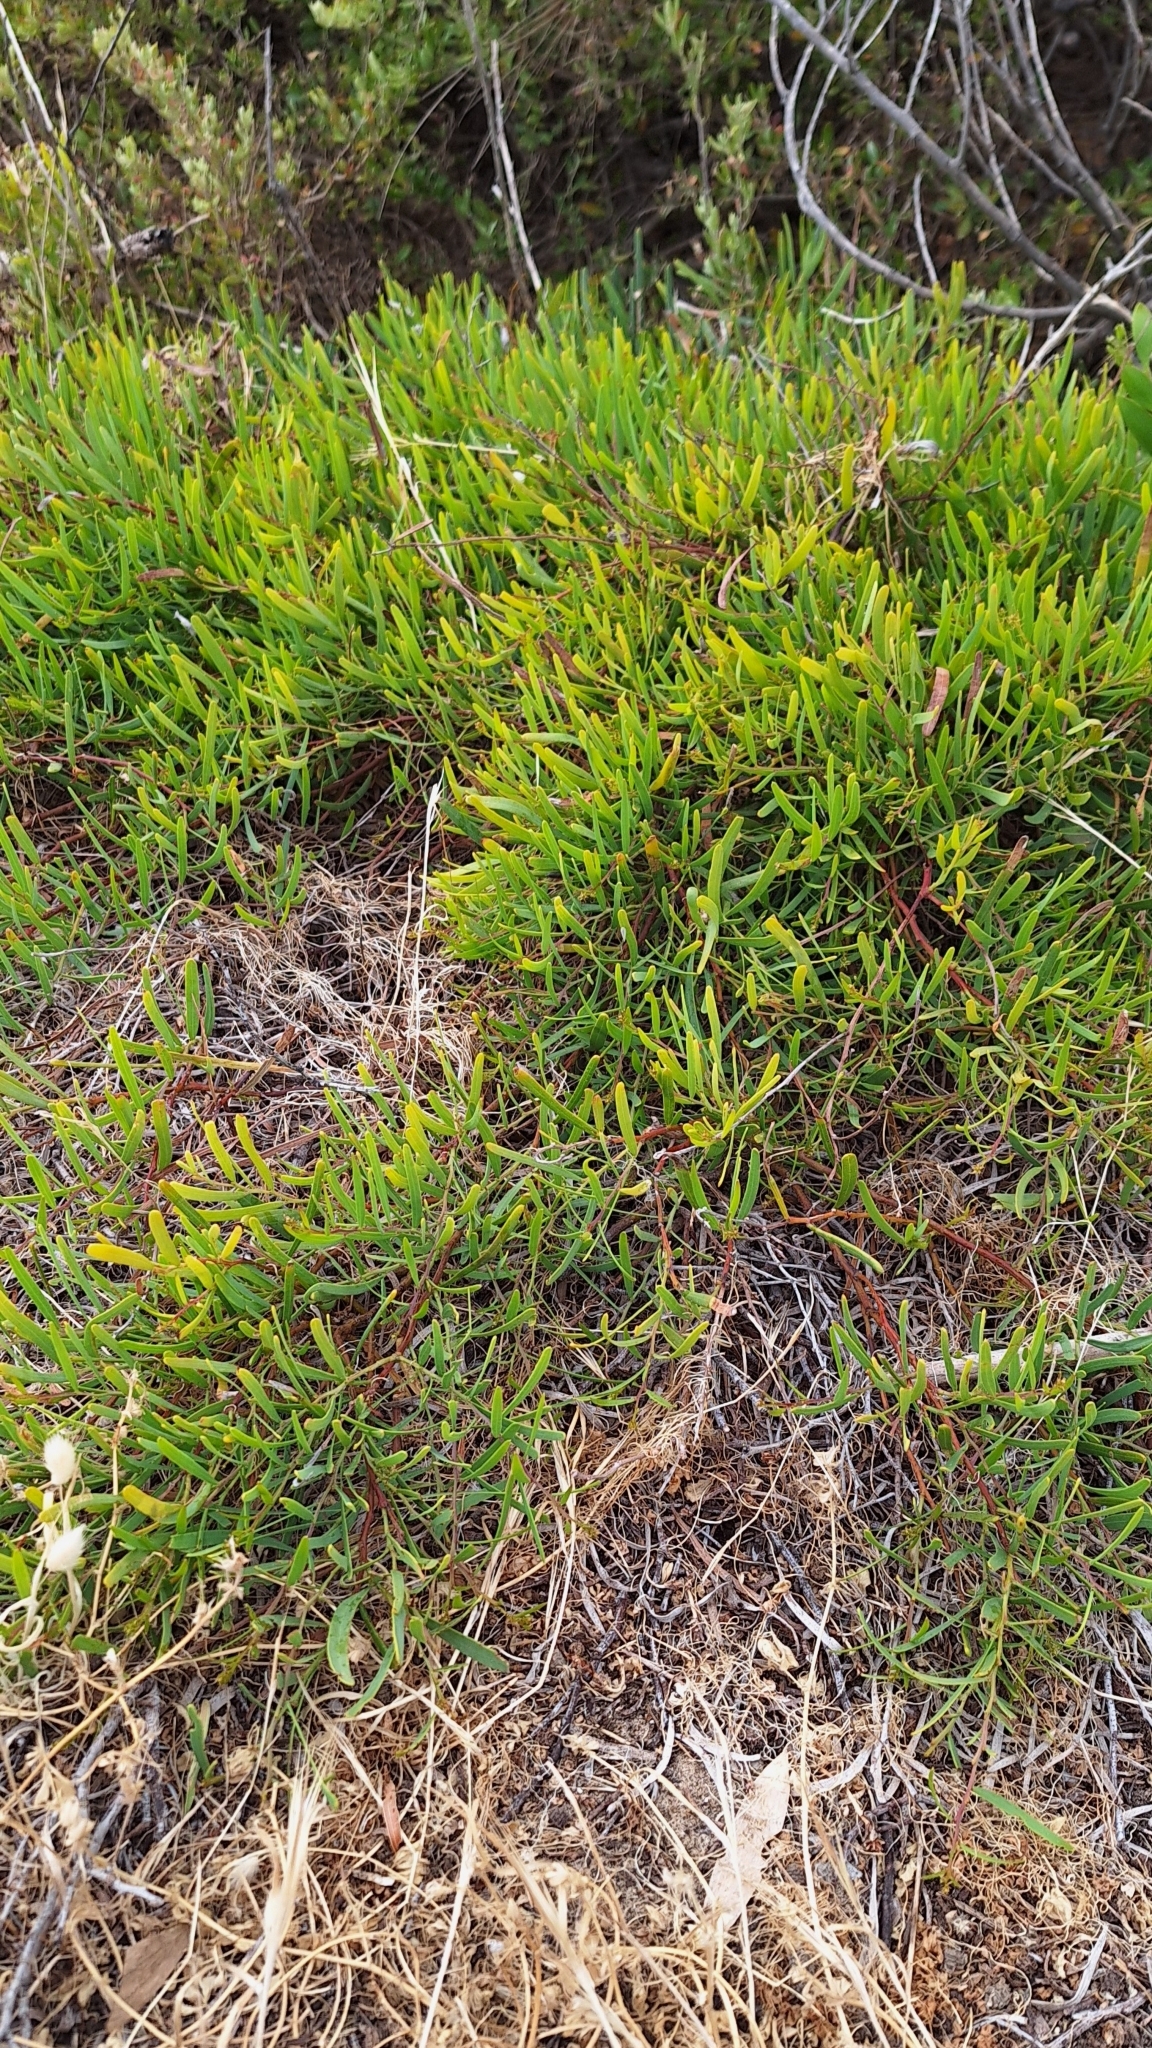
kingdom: Plantae
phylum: Tracheophyta
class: Magnoliopsida
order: Fabales
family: Fabaceae
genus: Acacia
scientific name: Acacia cupularis
